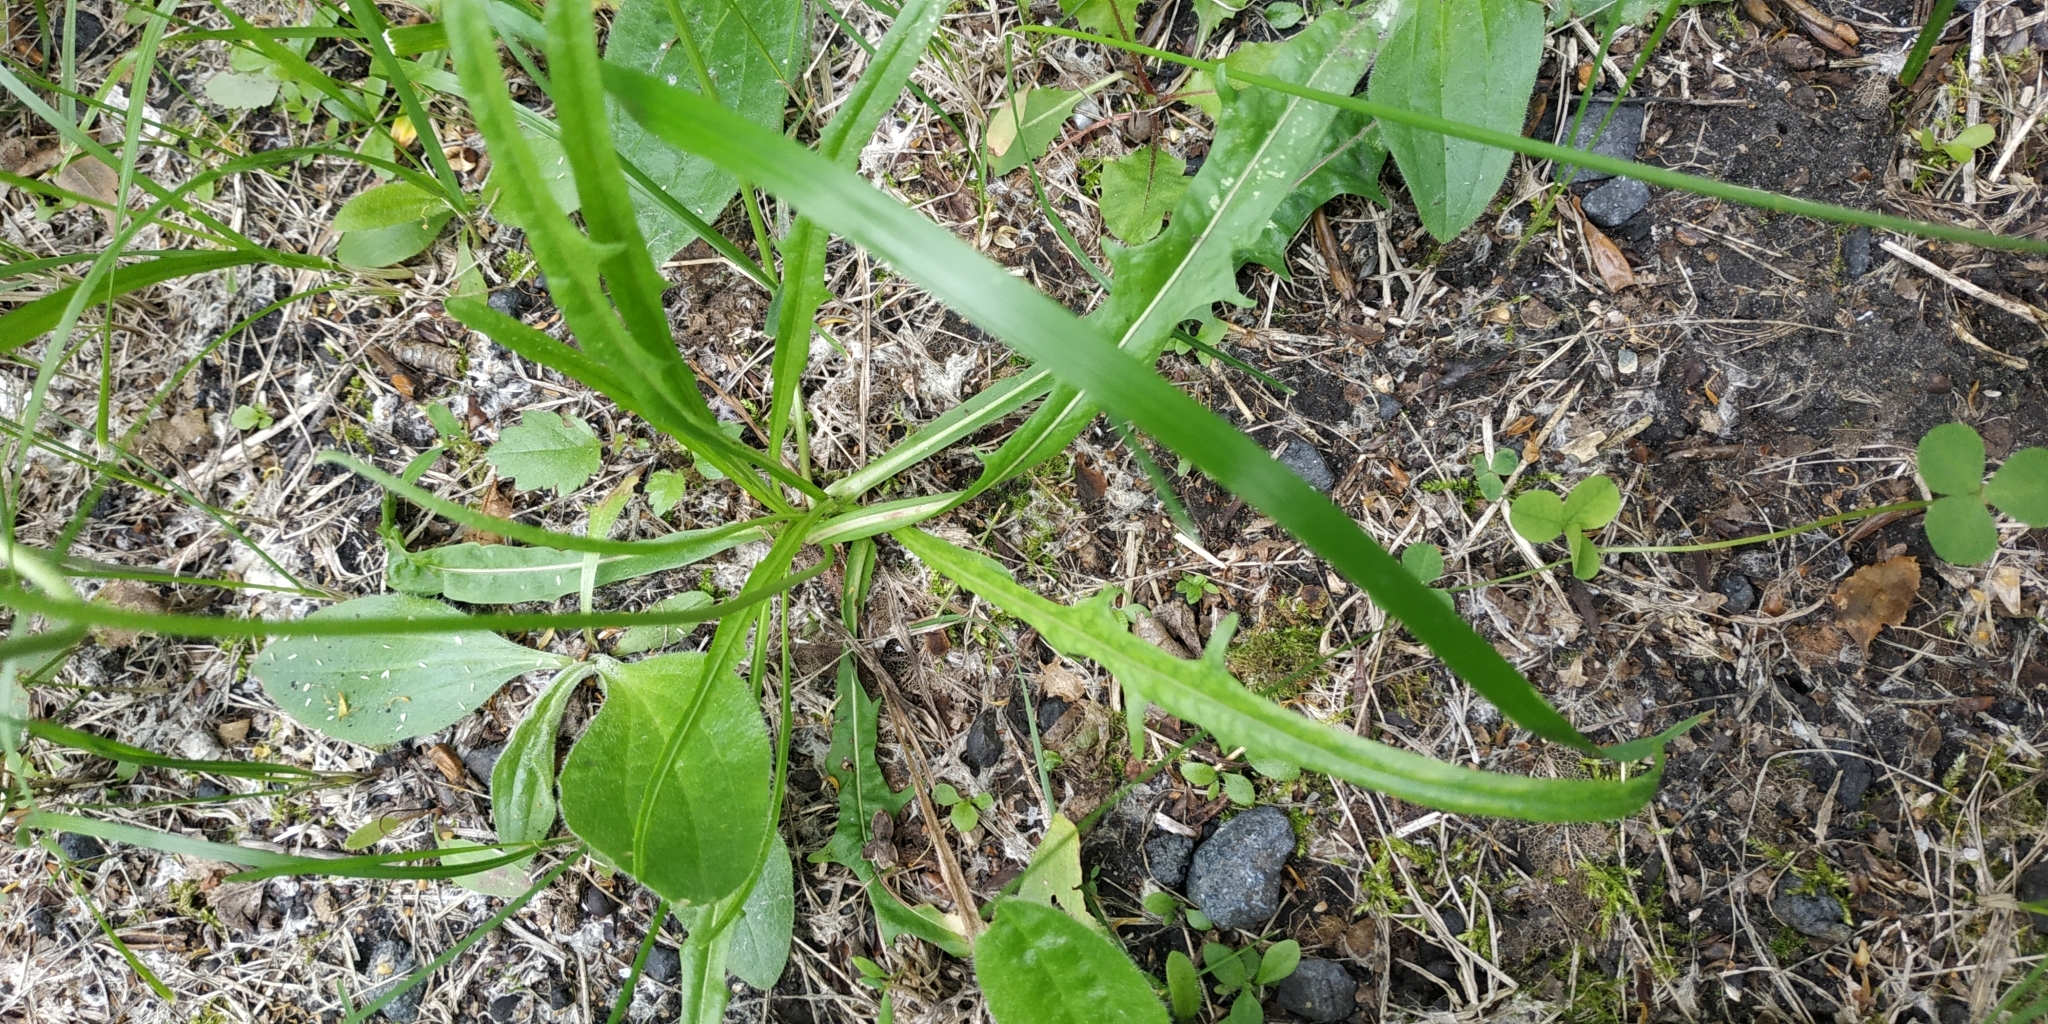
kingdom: Plantae
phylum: Tracheophyta
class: Magnoliopsida
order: Asterales
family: Asteraceae
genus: Scorzoneroides
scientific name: Scorzoneroides autumnalis
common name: Autumn hawkbit
